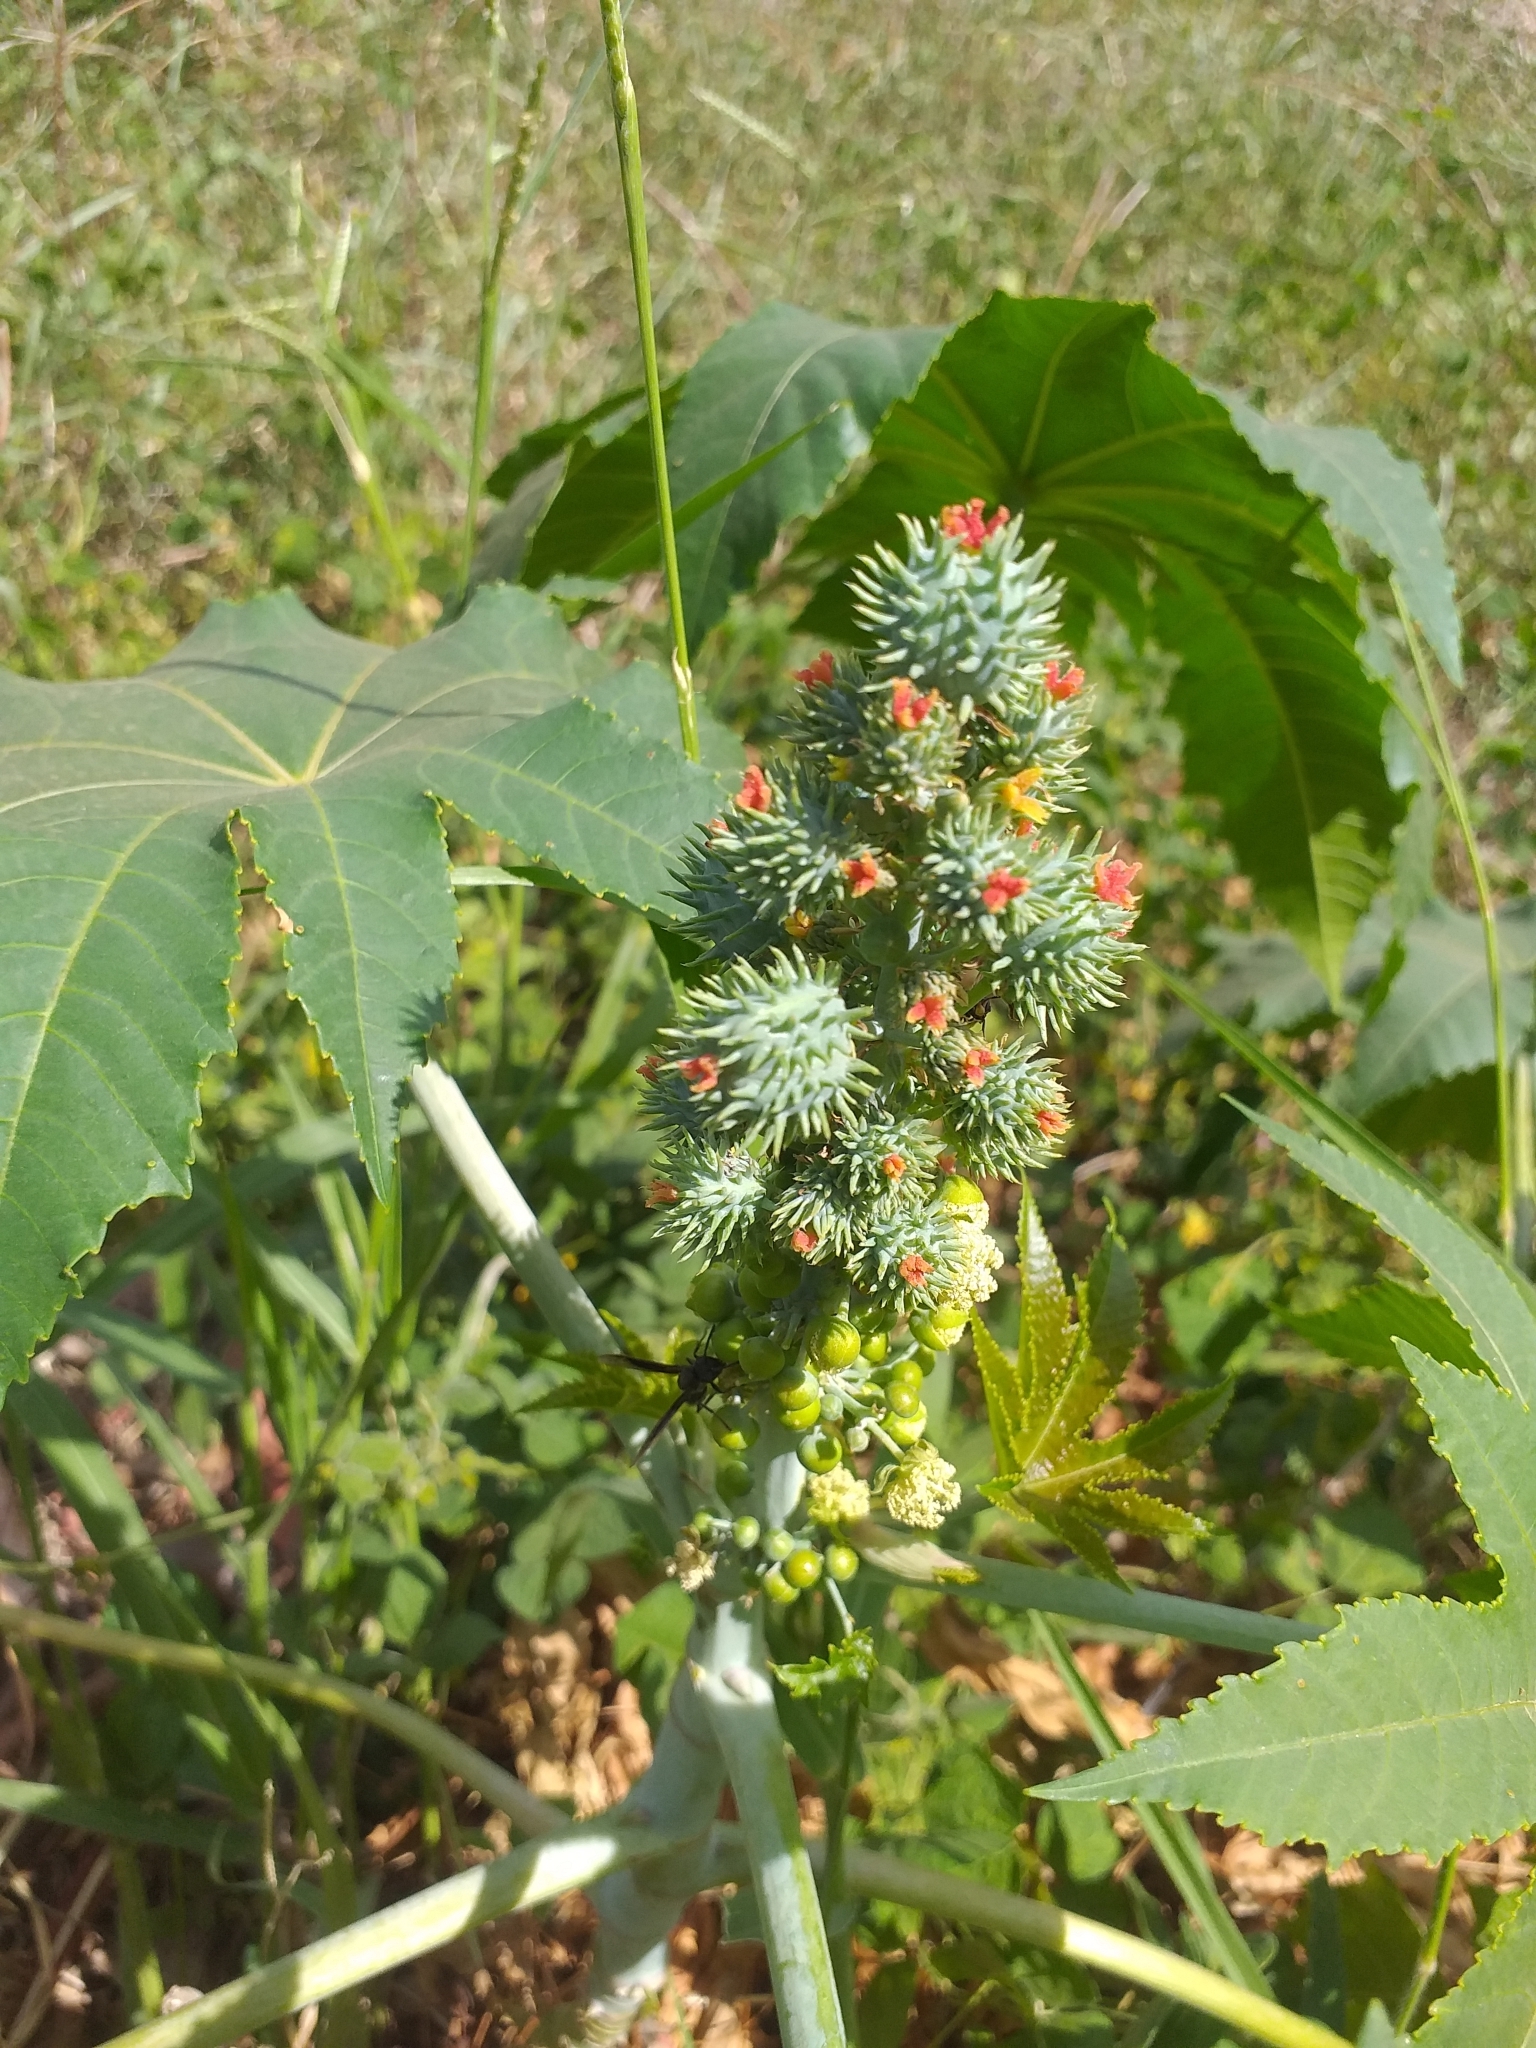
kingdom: Plantae
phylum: Tracheophyta
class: Magnoliopsida
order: Malpighiales
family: Euphorbiaceae
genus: Ricinus
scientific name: Ricinus communis
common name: Castor-oil-plant
